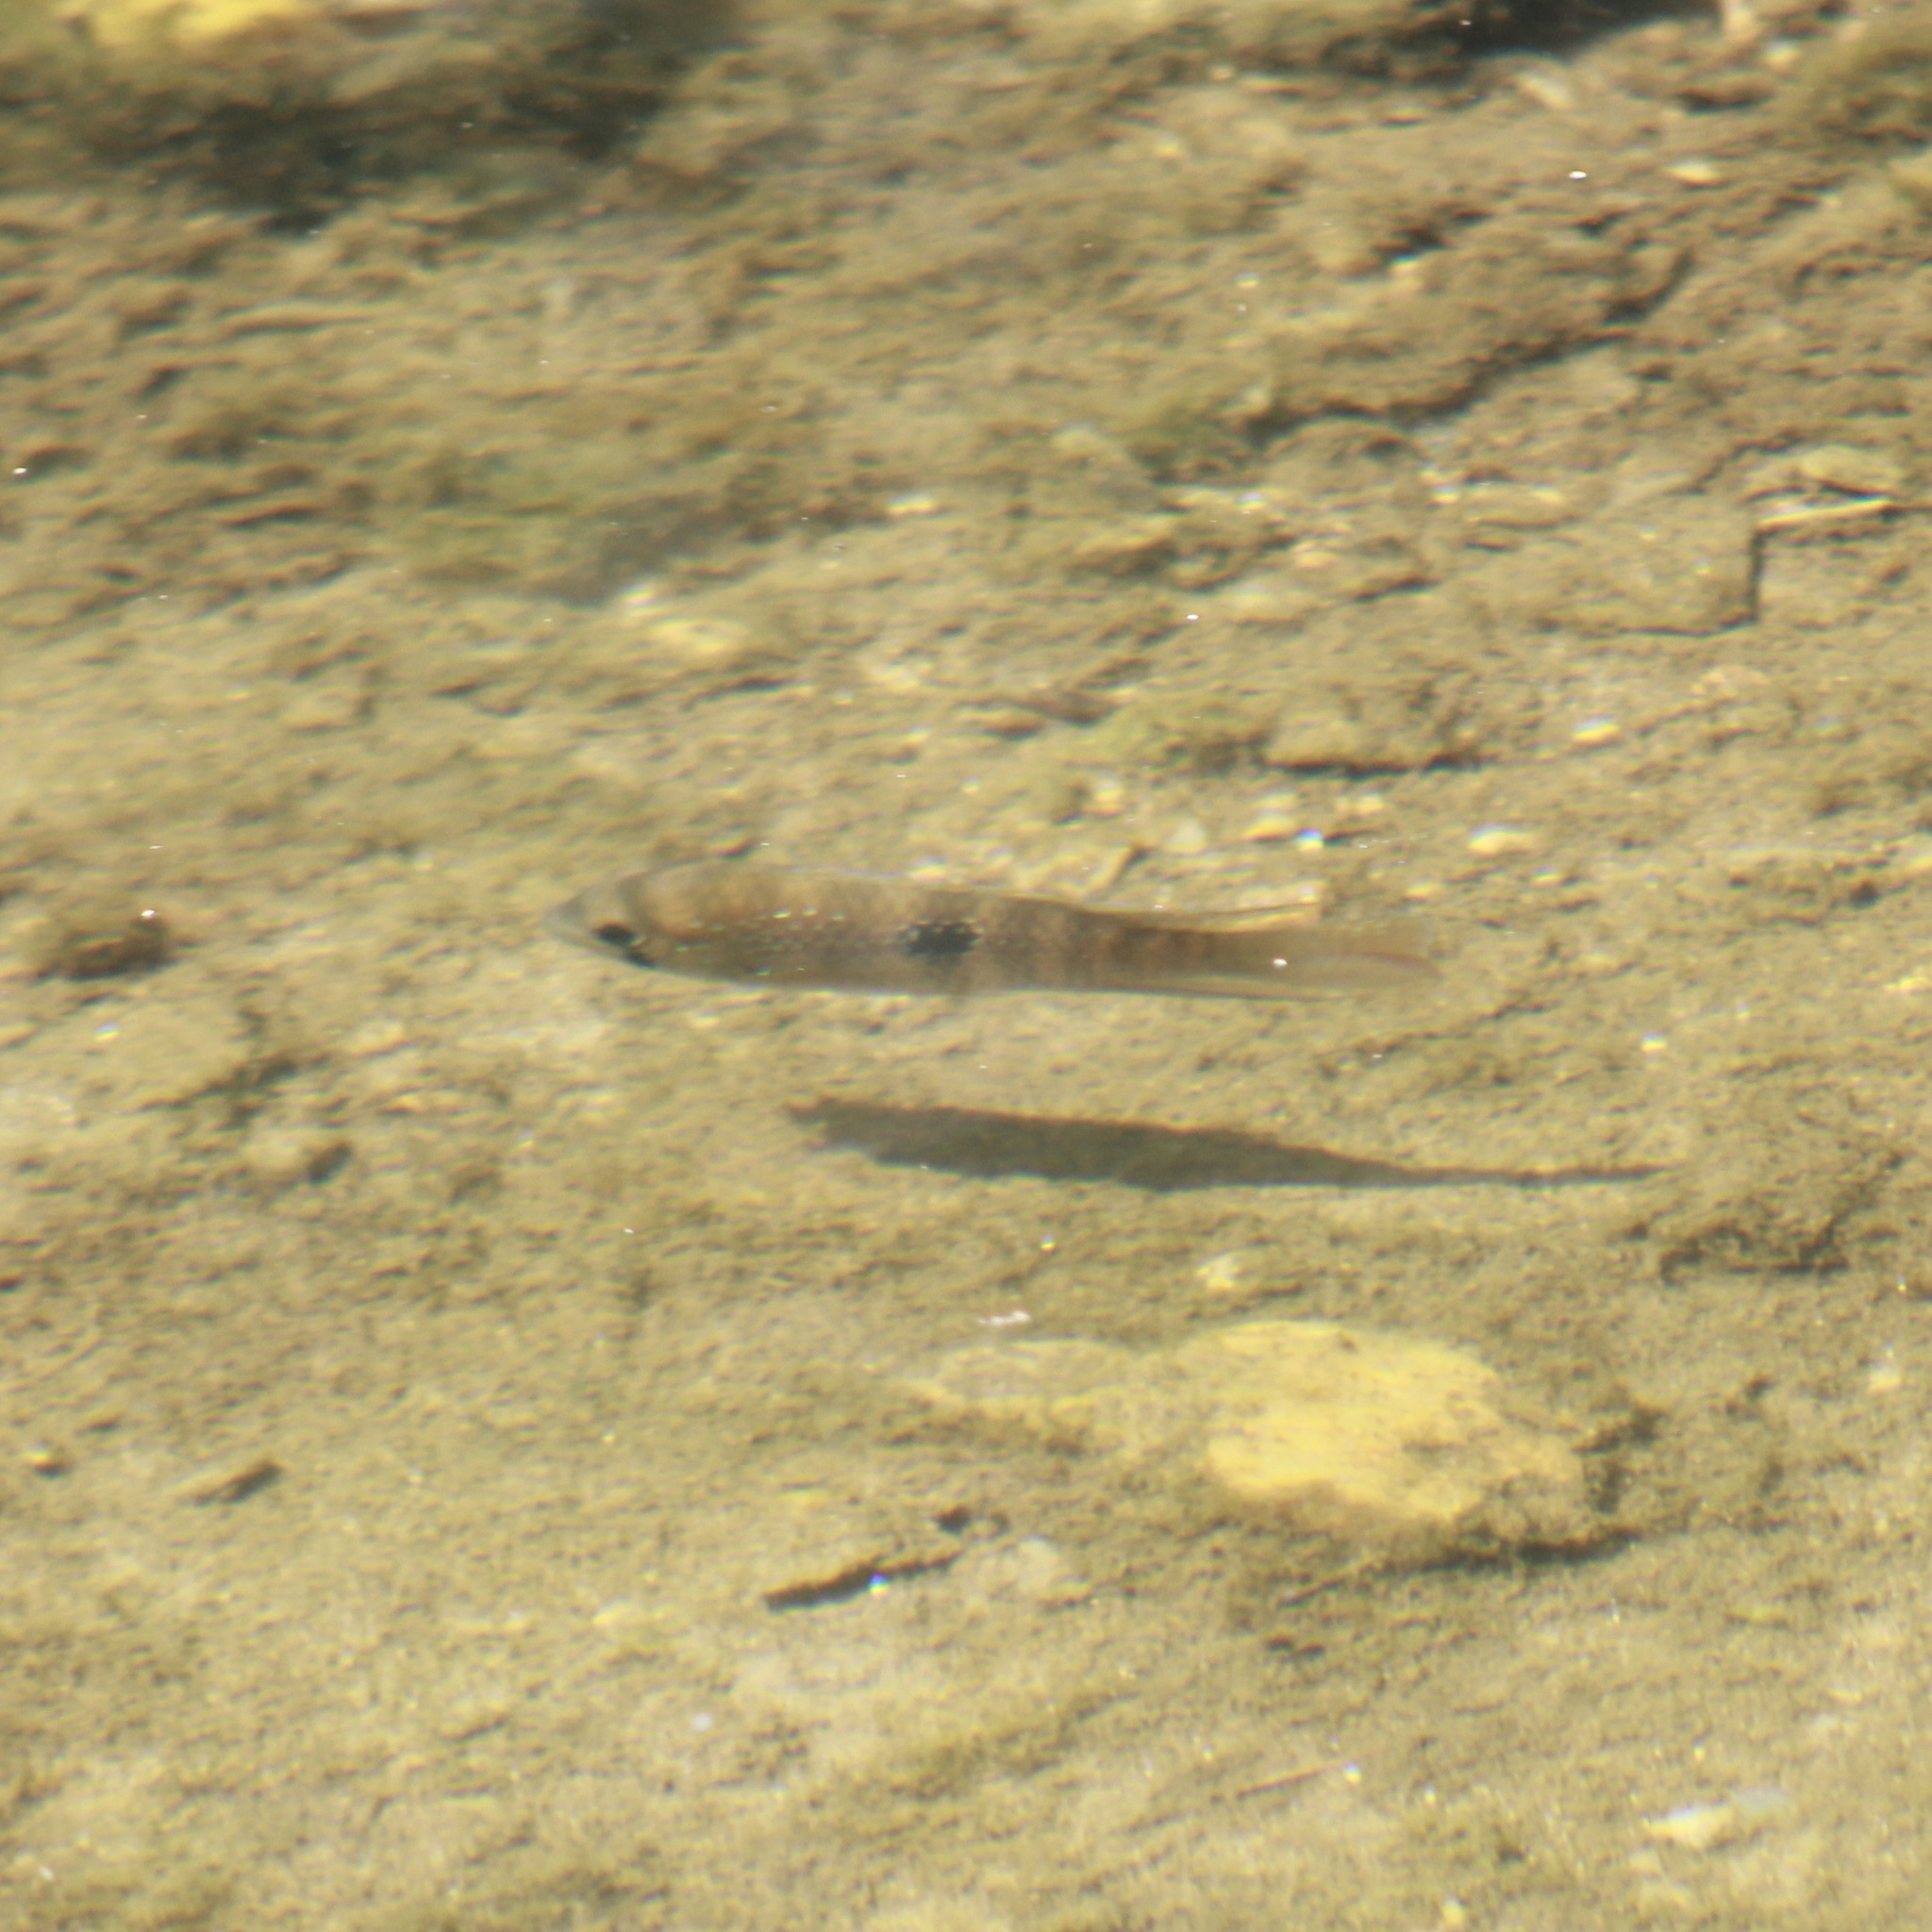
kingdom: Animalia
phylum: Chordata
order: Perciformes
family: Cichlidae
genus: Andinoacara
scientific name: Andinoacara pulcher
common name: Blue acara
